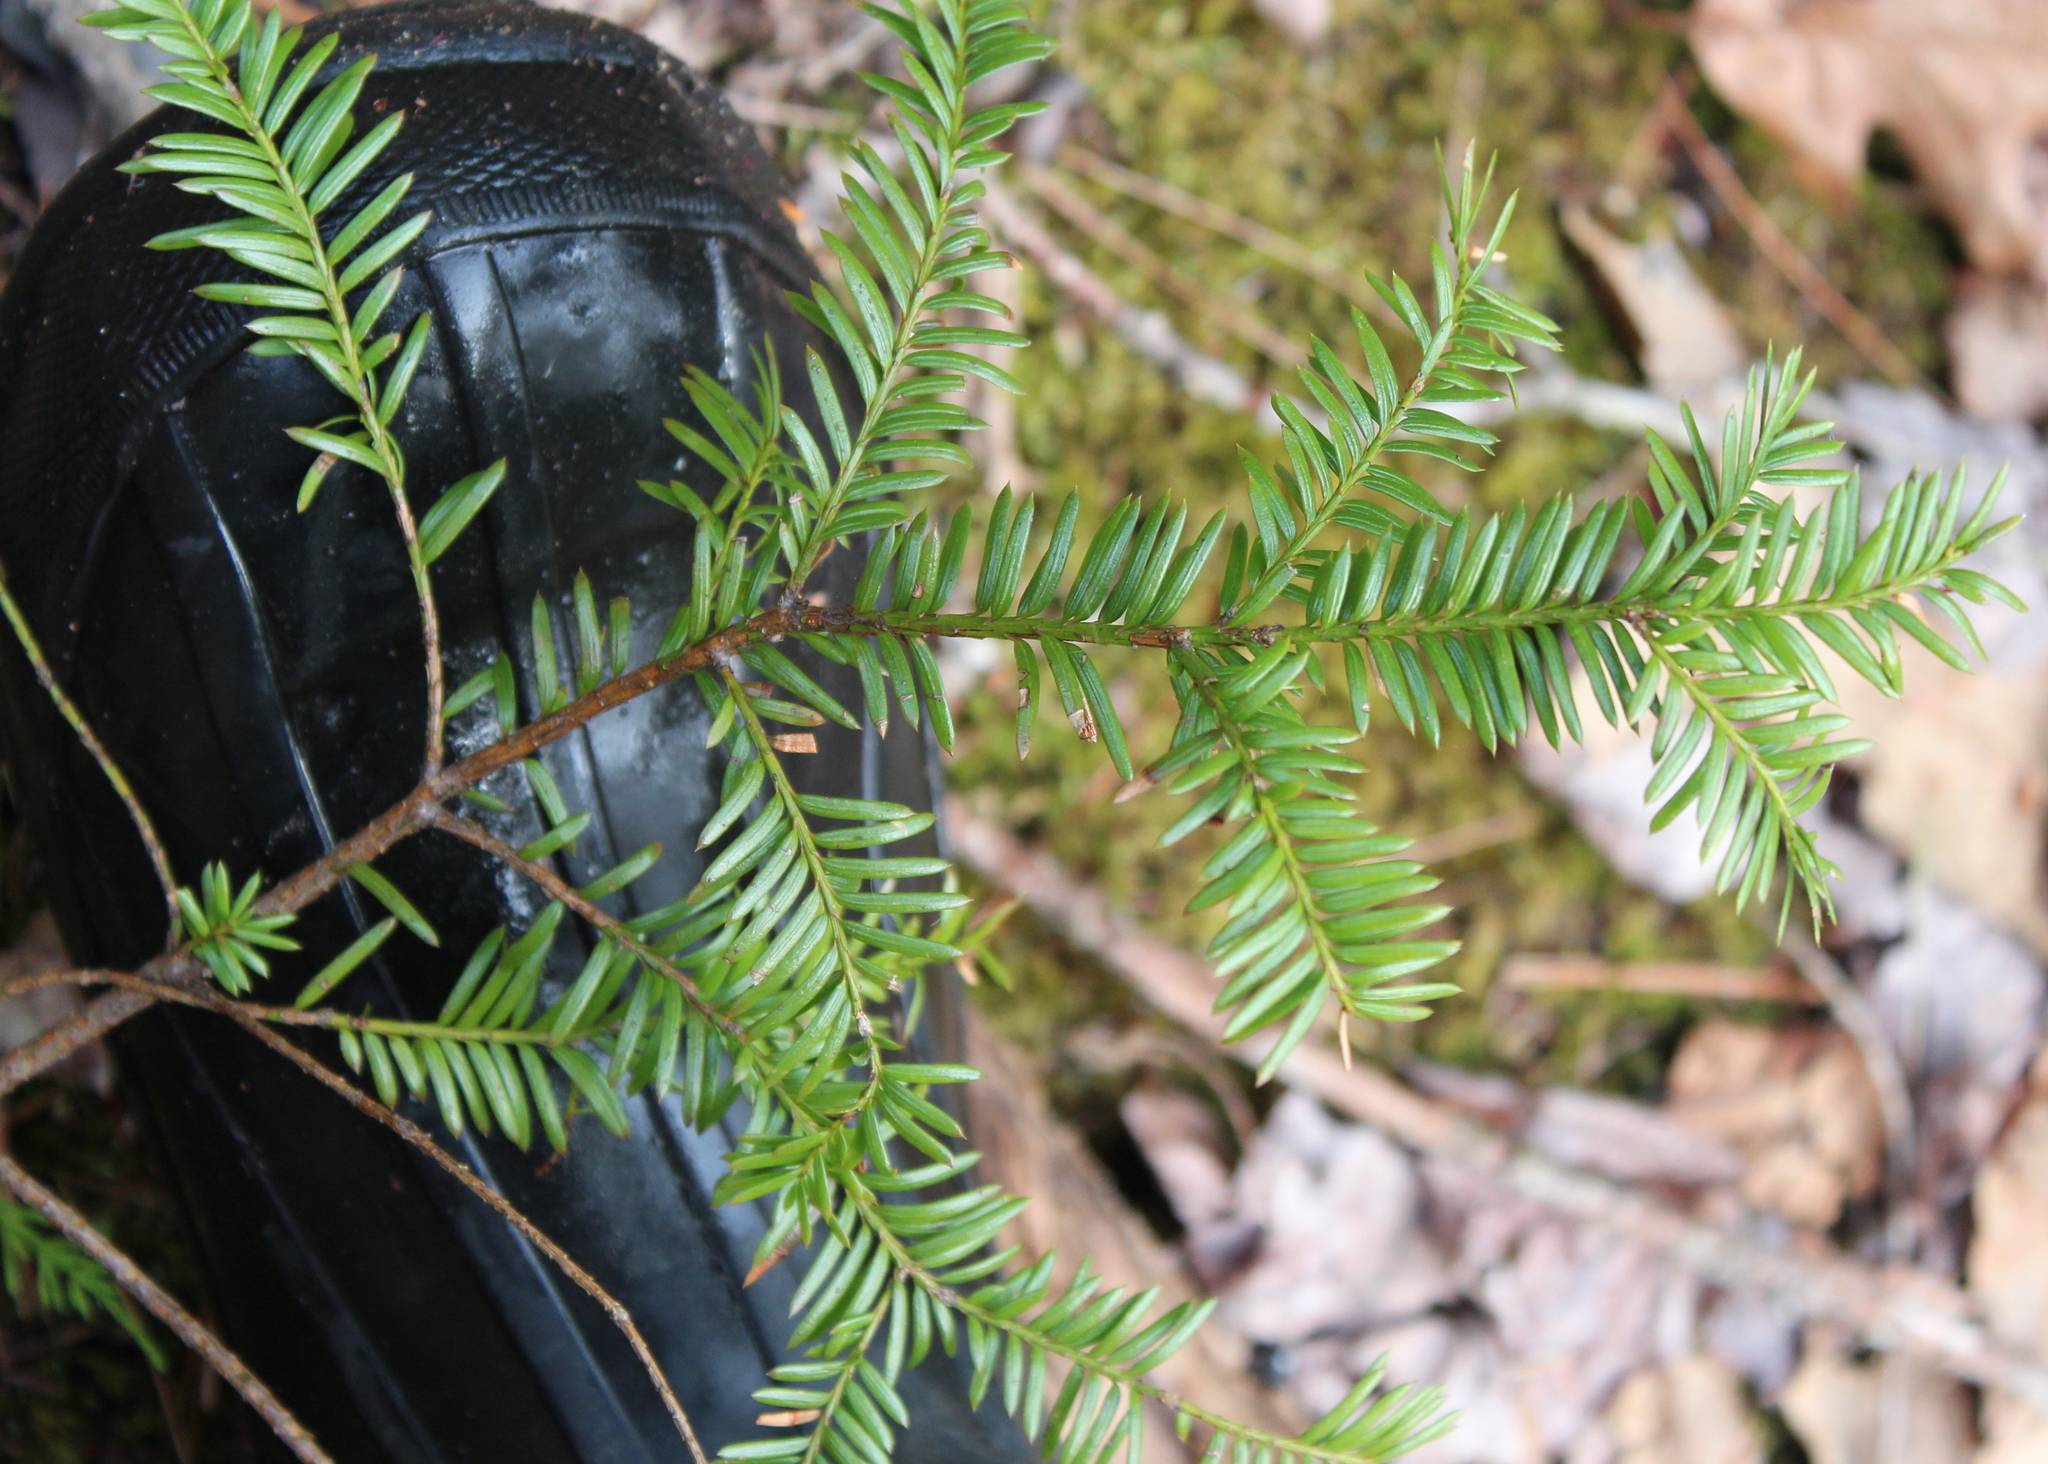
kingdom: Plantae
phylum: Tracheophyta
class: Pinopsida
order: Pinales
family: Taxaceae
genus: Taxus
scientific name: Taxus canadensis
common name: American yew
